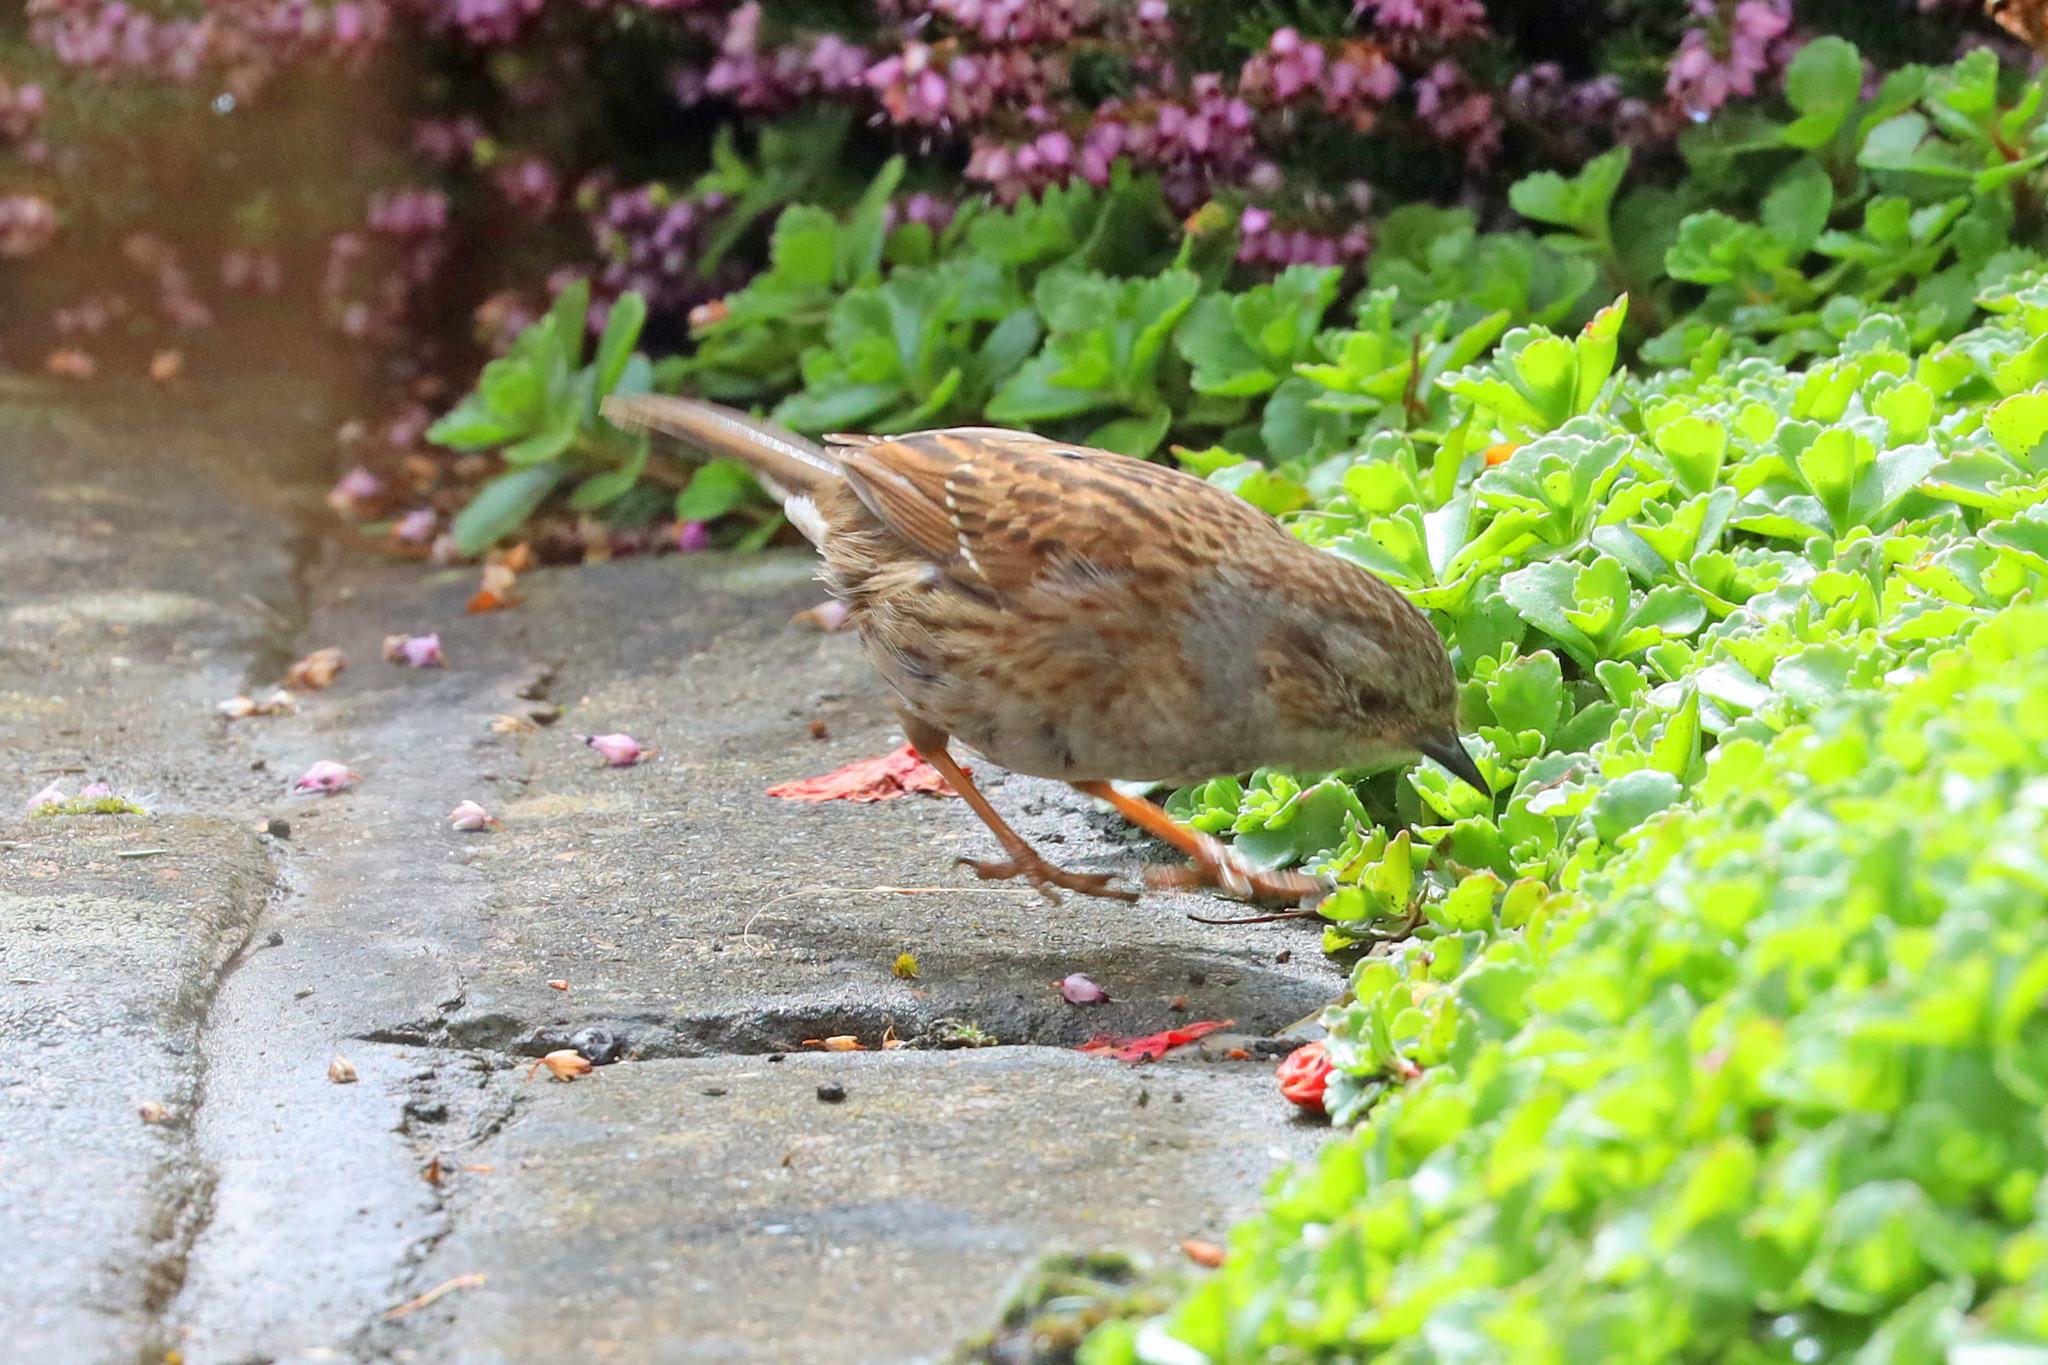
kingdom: Animalia
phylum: Chordata
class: Aves
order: Passeriformes
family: Prunellidae
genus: Prunella
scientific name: Prunella modularis
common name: Dunnock
